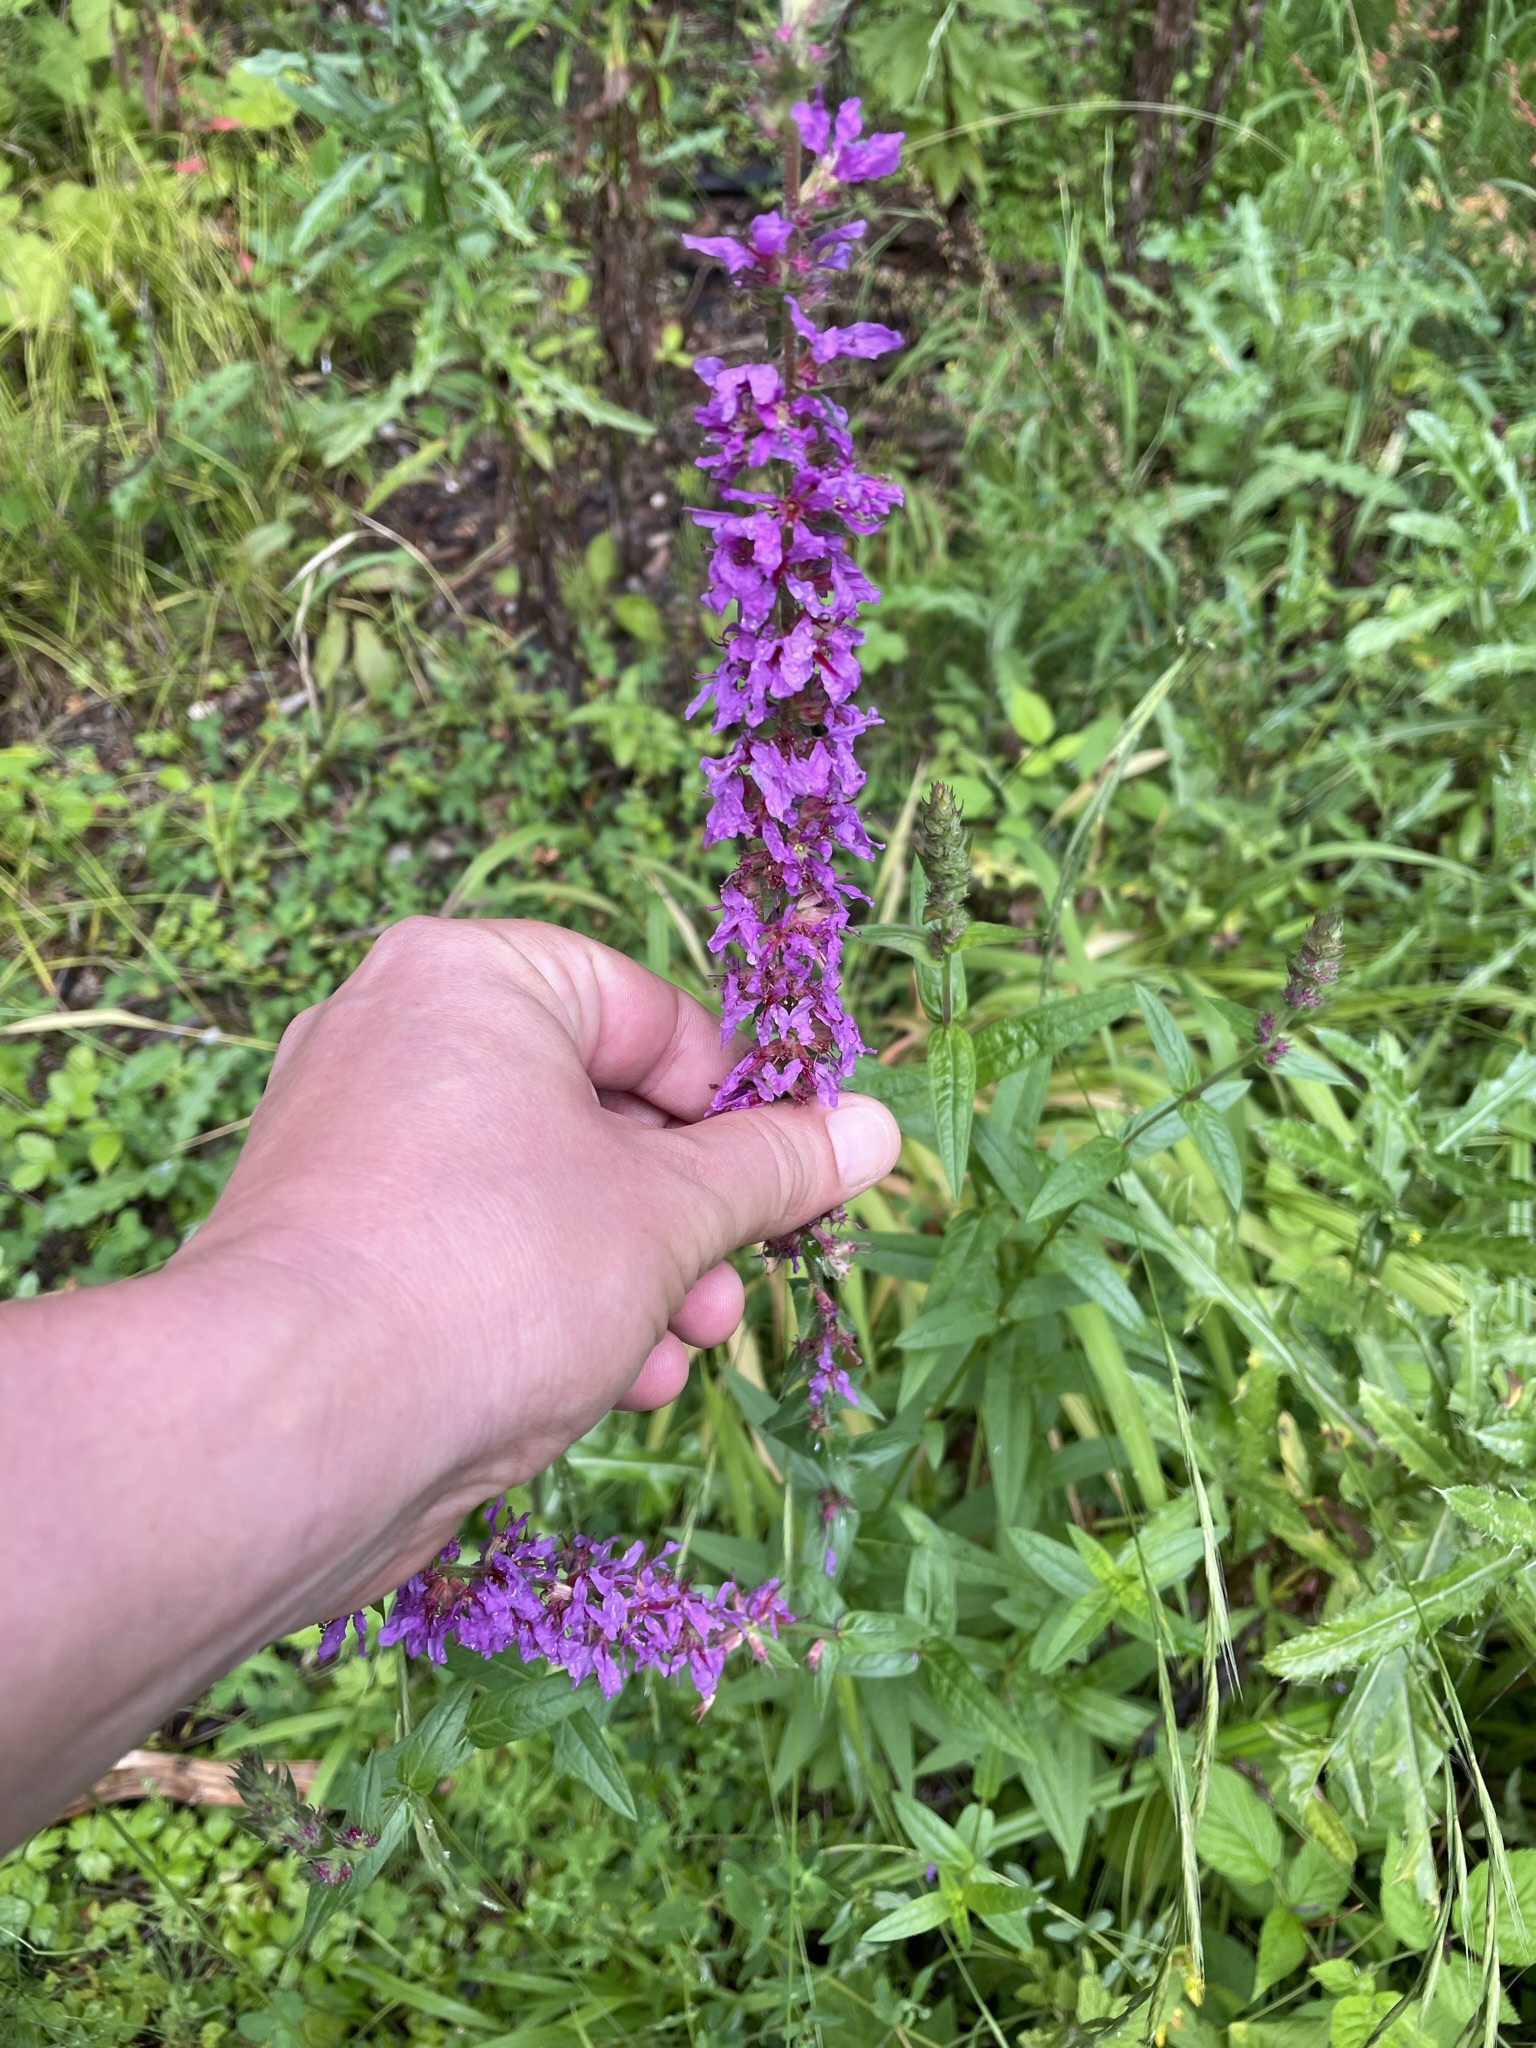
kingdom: Plantae
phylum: Tracheophyta
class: Magnoliopsida
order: Myrtales
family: Lythraceae
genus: Lythrum
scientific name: Lythrum salicaria
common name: Purple loosestrife
